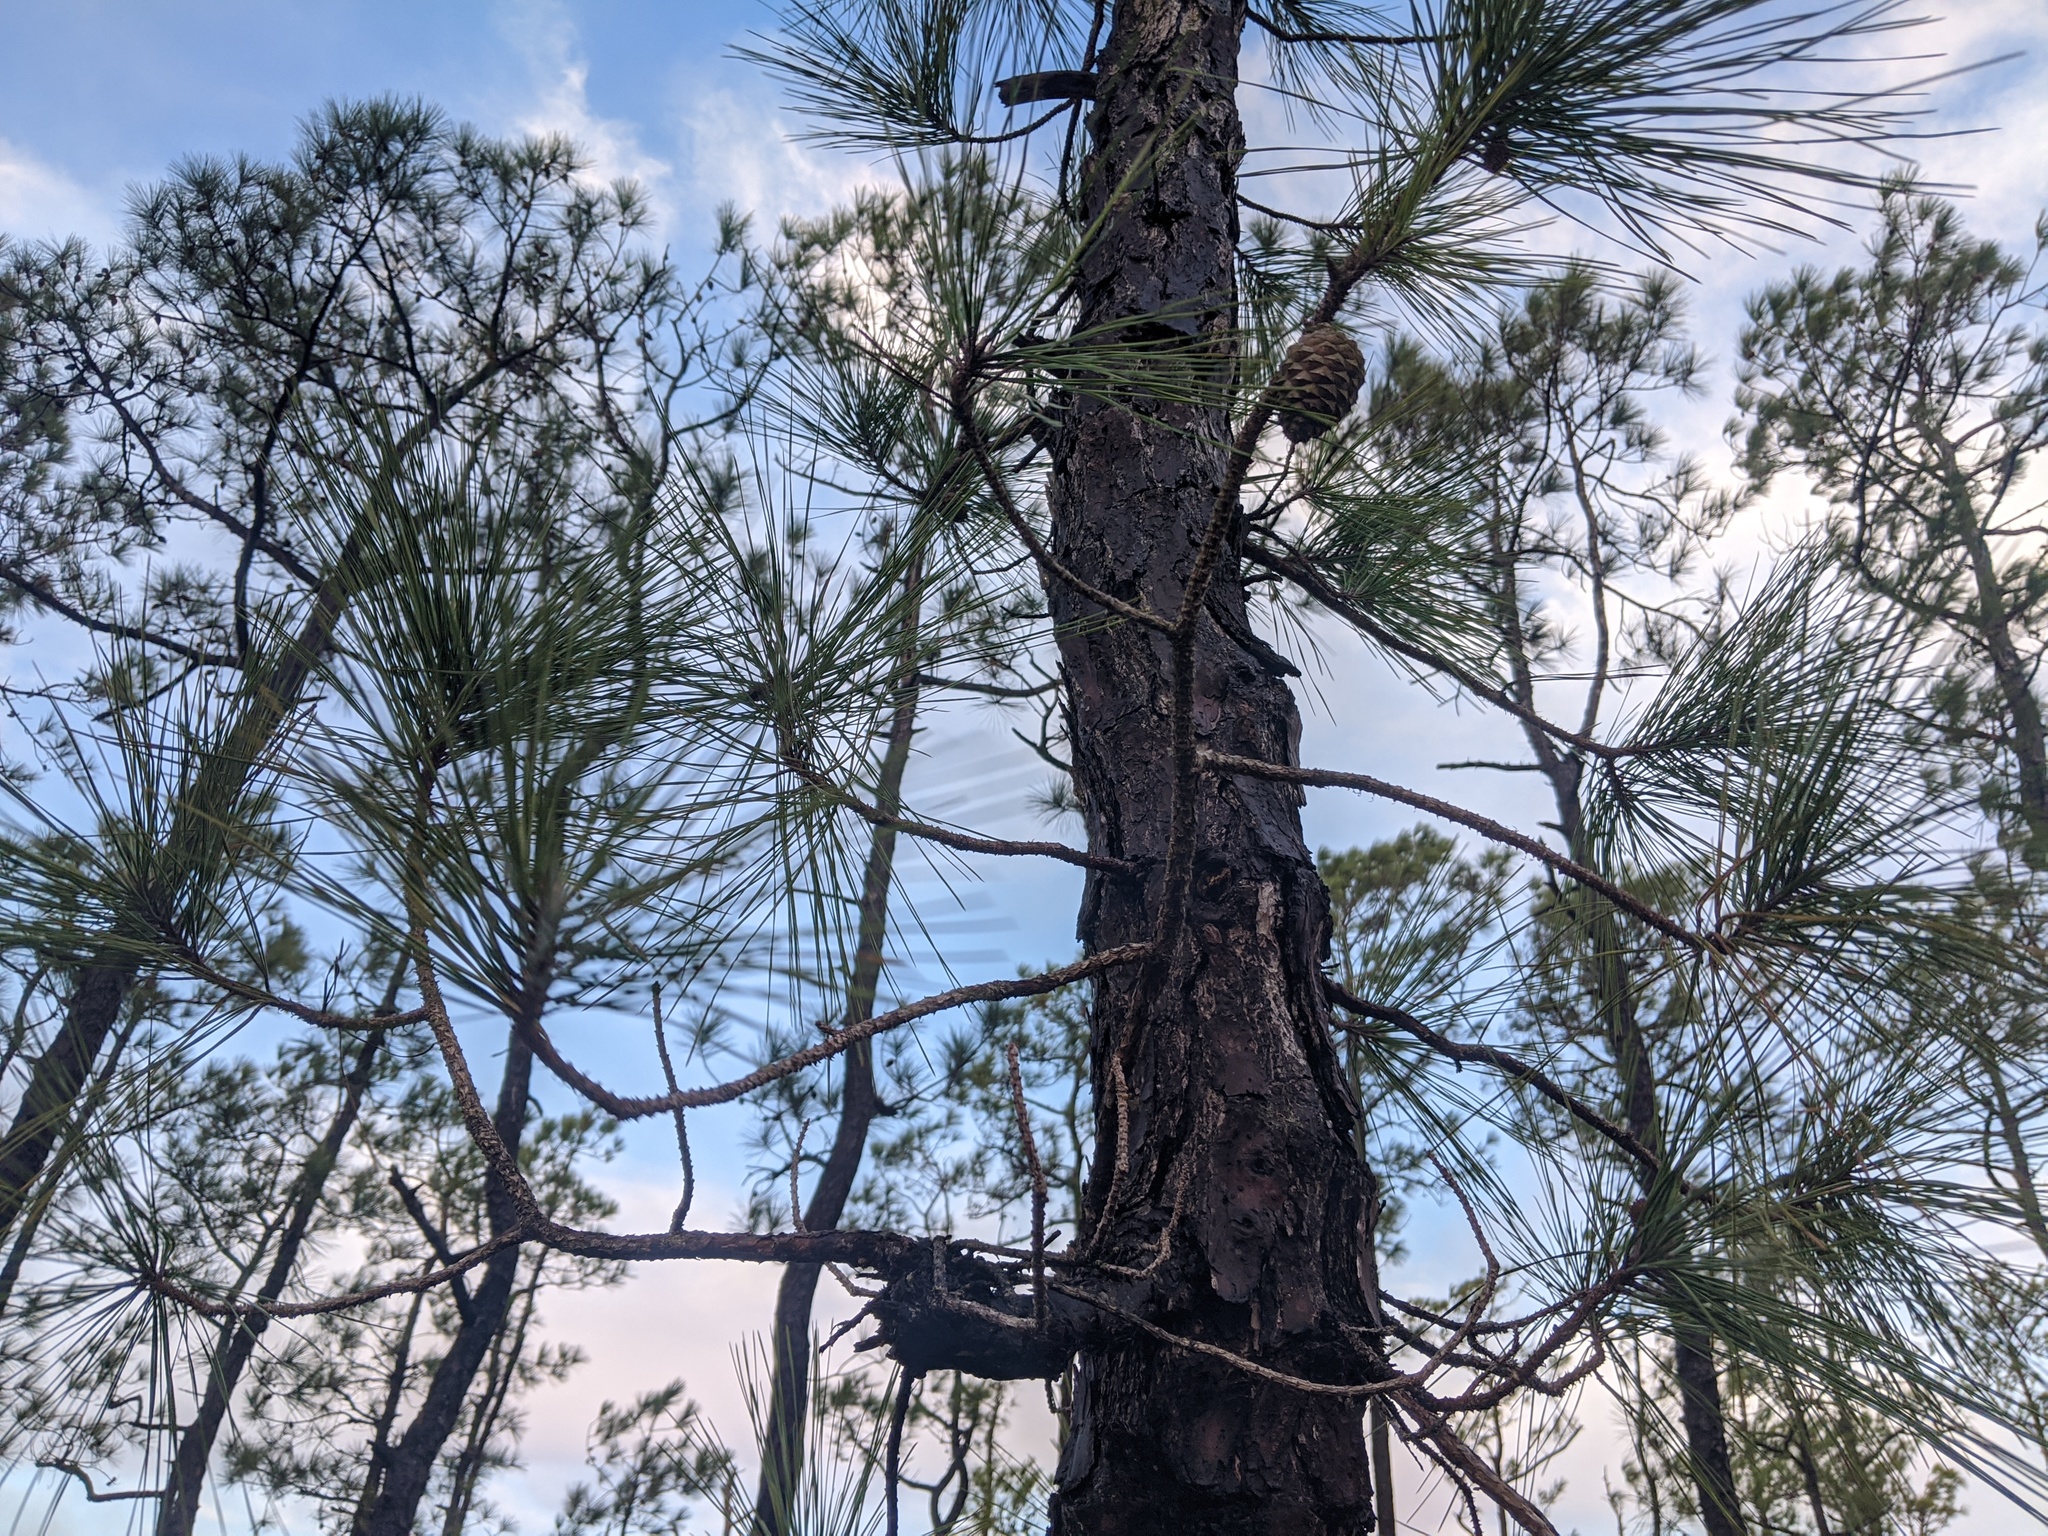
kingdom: Plantae
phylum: Tracheophyta
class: Pinopsida
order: Pinales
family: Pinaceae
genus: Pinus
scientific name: Pinus serotina
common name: Marsh pine
